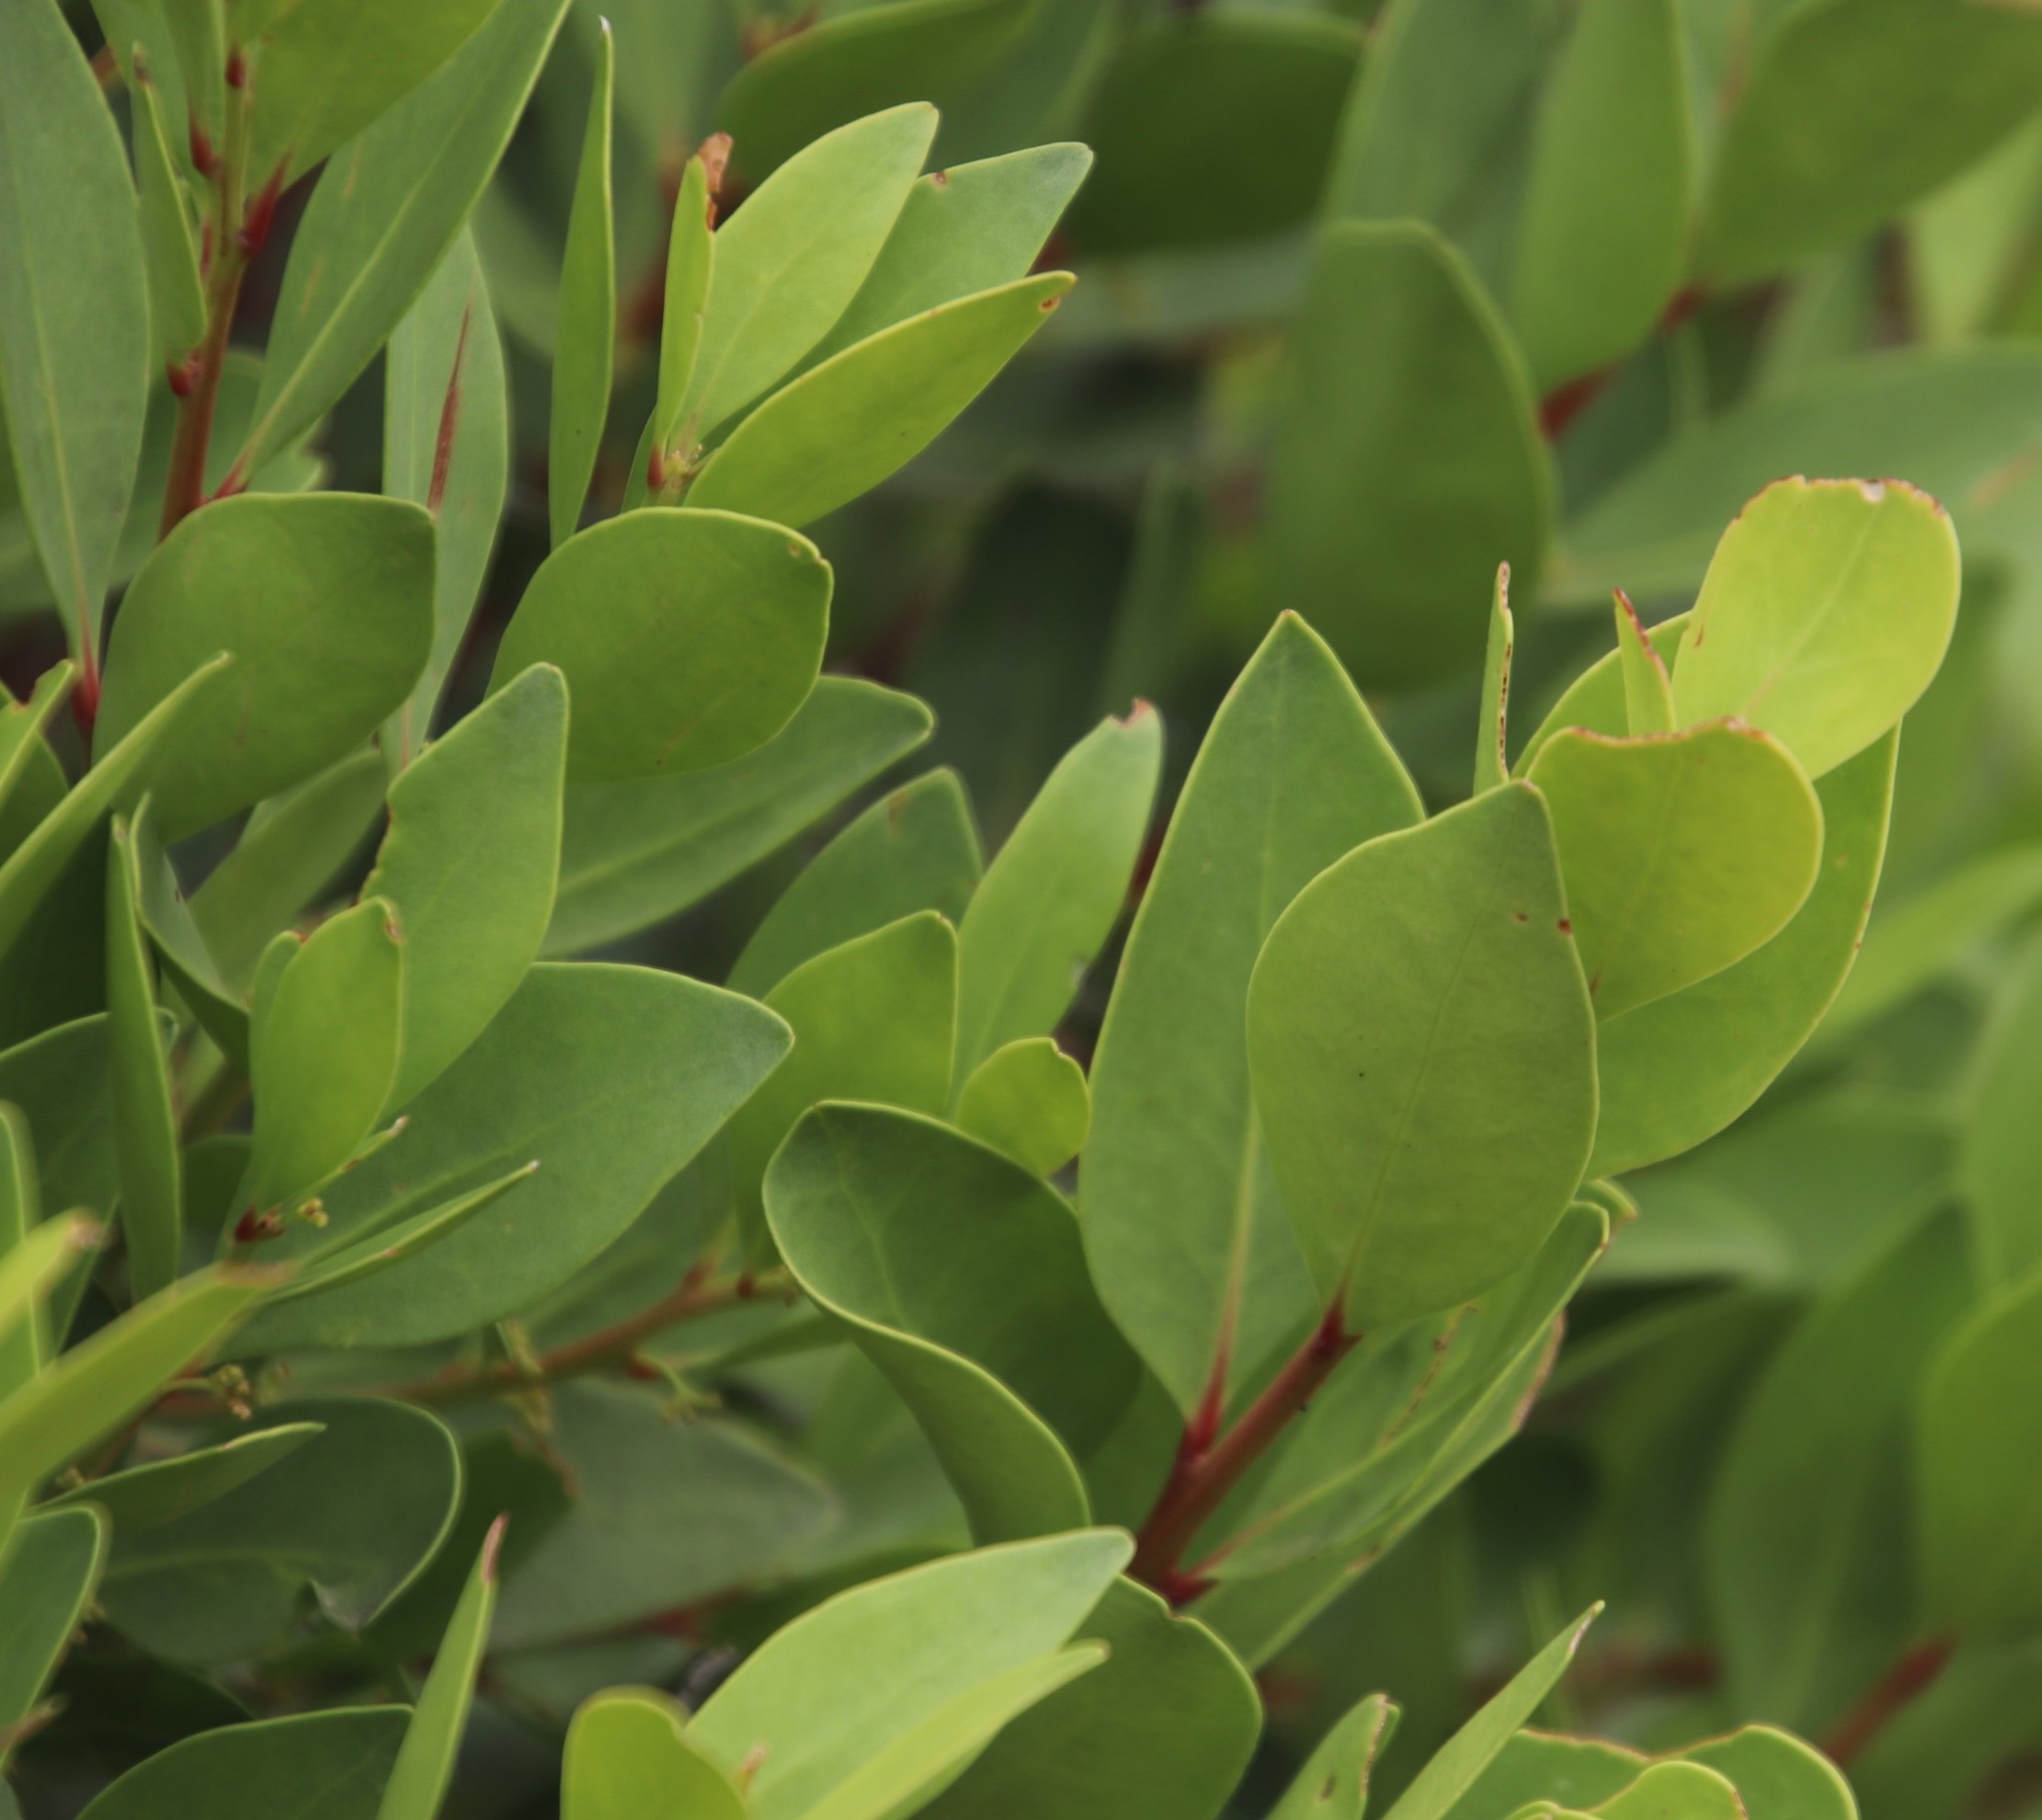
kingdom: Plantae
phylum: Tracheophyta
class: Magnoliopsida
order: Celastrales
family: Celastraceae
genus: Gymnosporia
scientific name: Gymnosporia laurina
